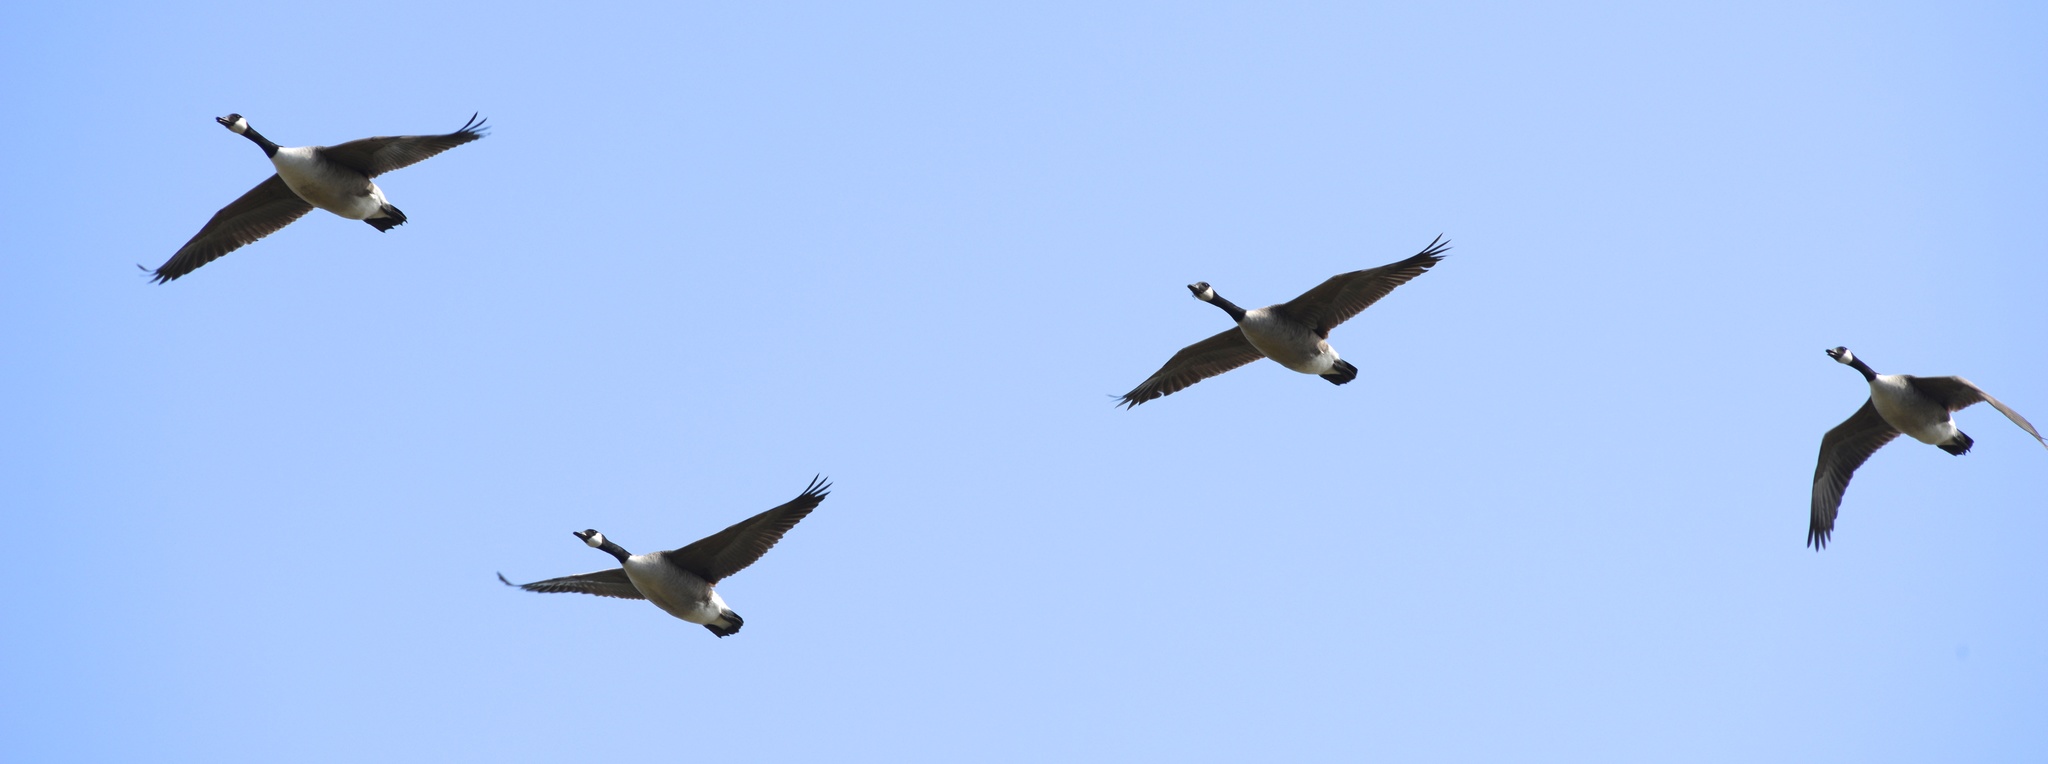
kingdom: Animalia
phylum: Chordata
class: Aves
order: Anseriformes
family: Anatidae
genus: Branta
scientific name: Branta canadensis
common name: Canada goose
